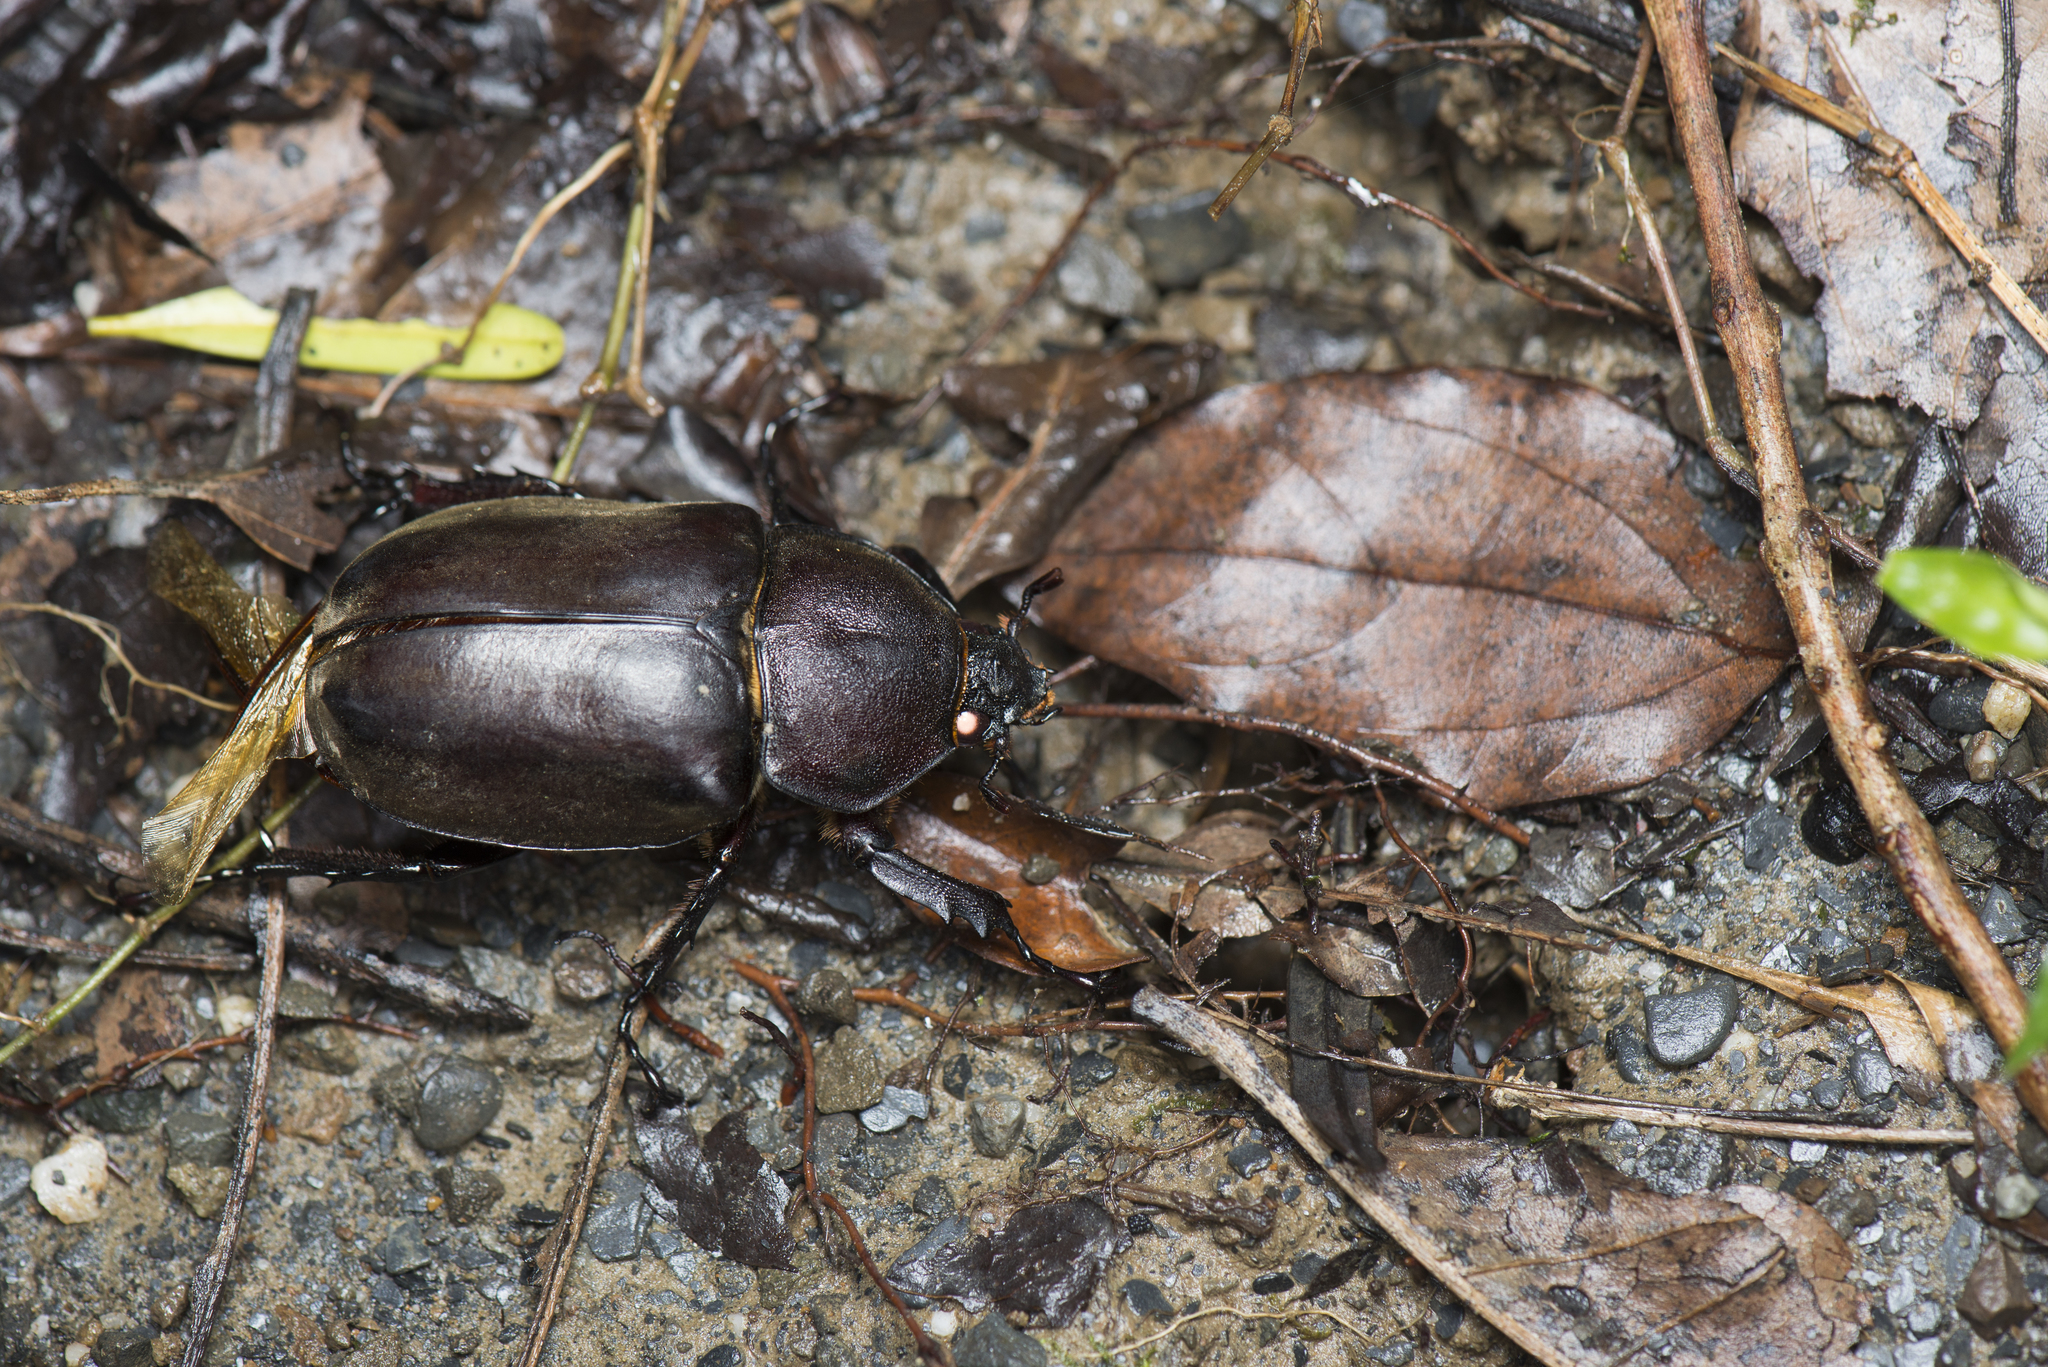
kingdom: Animalia
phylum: Arthropoda
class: Insecta
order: Coleoptera
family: Scarabaeidae
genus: Trypoxylus
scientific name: Trypoxylus dichotomus
